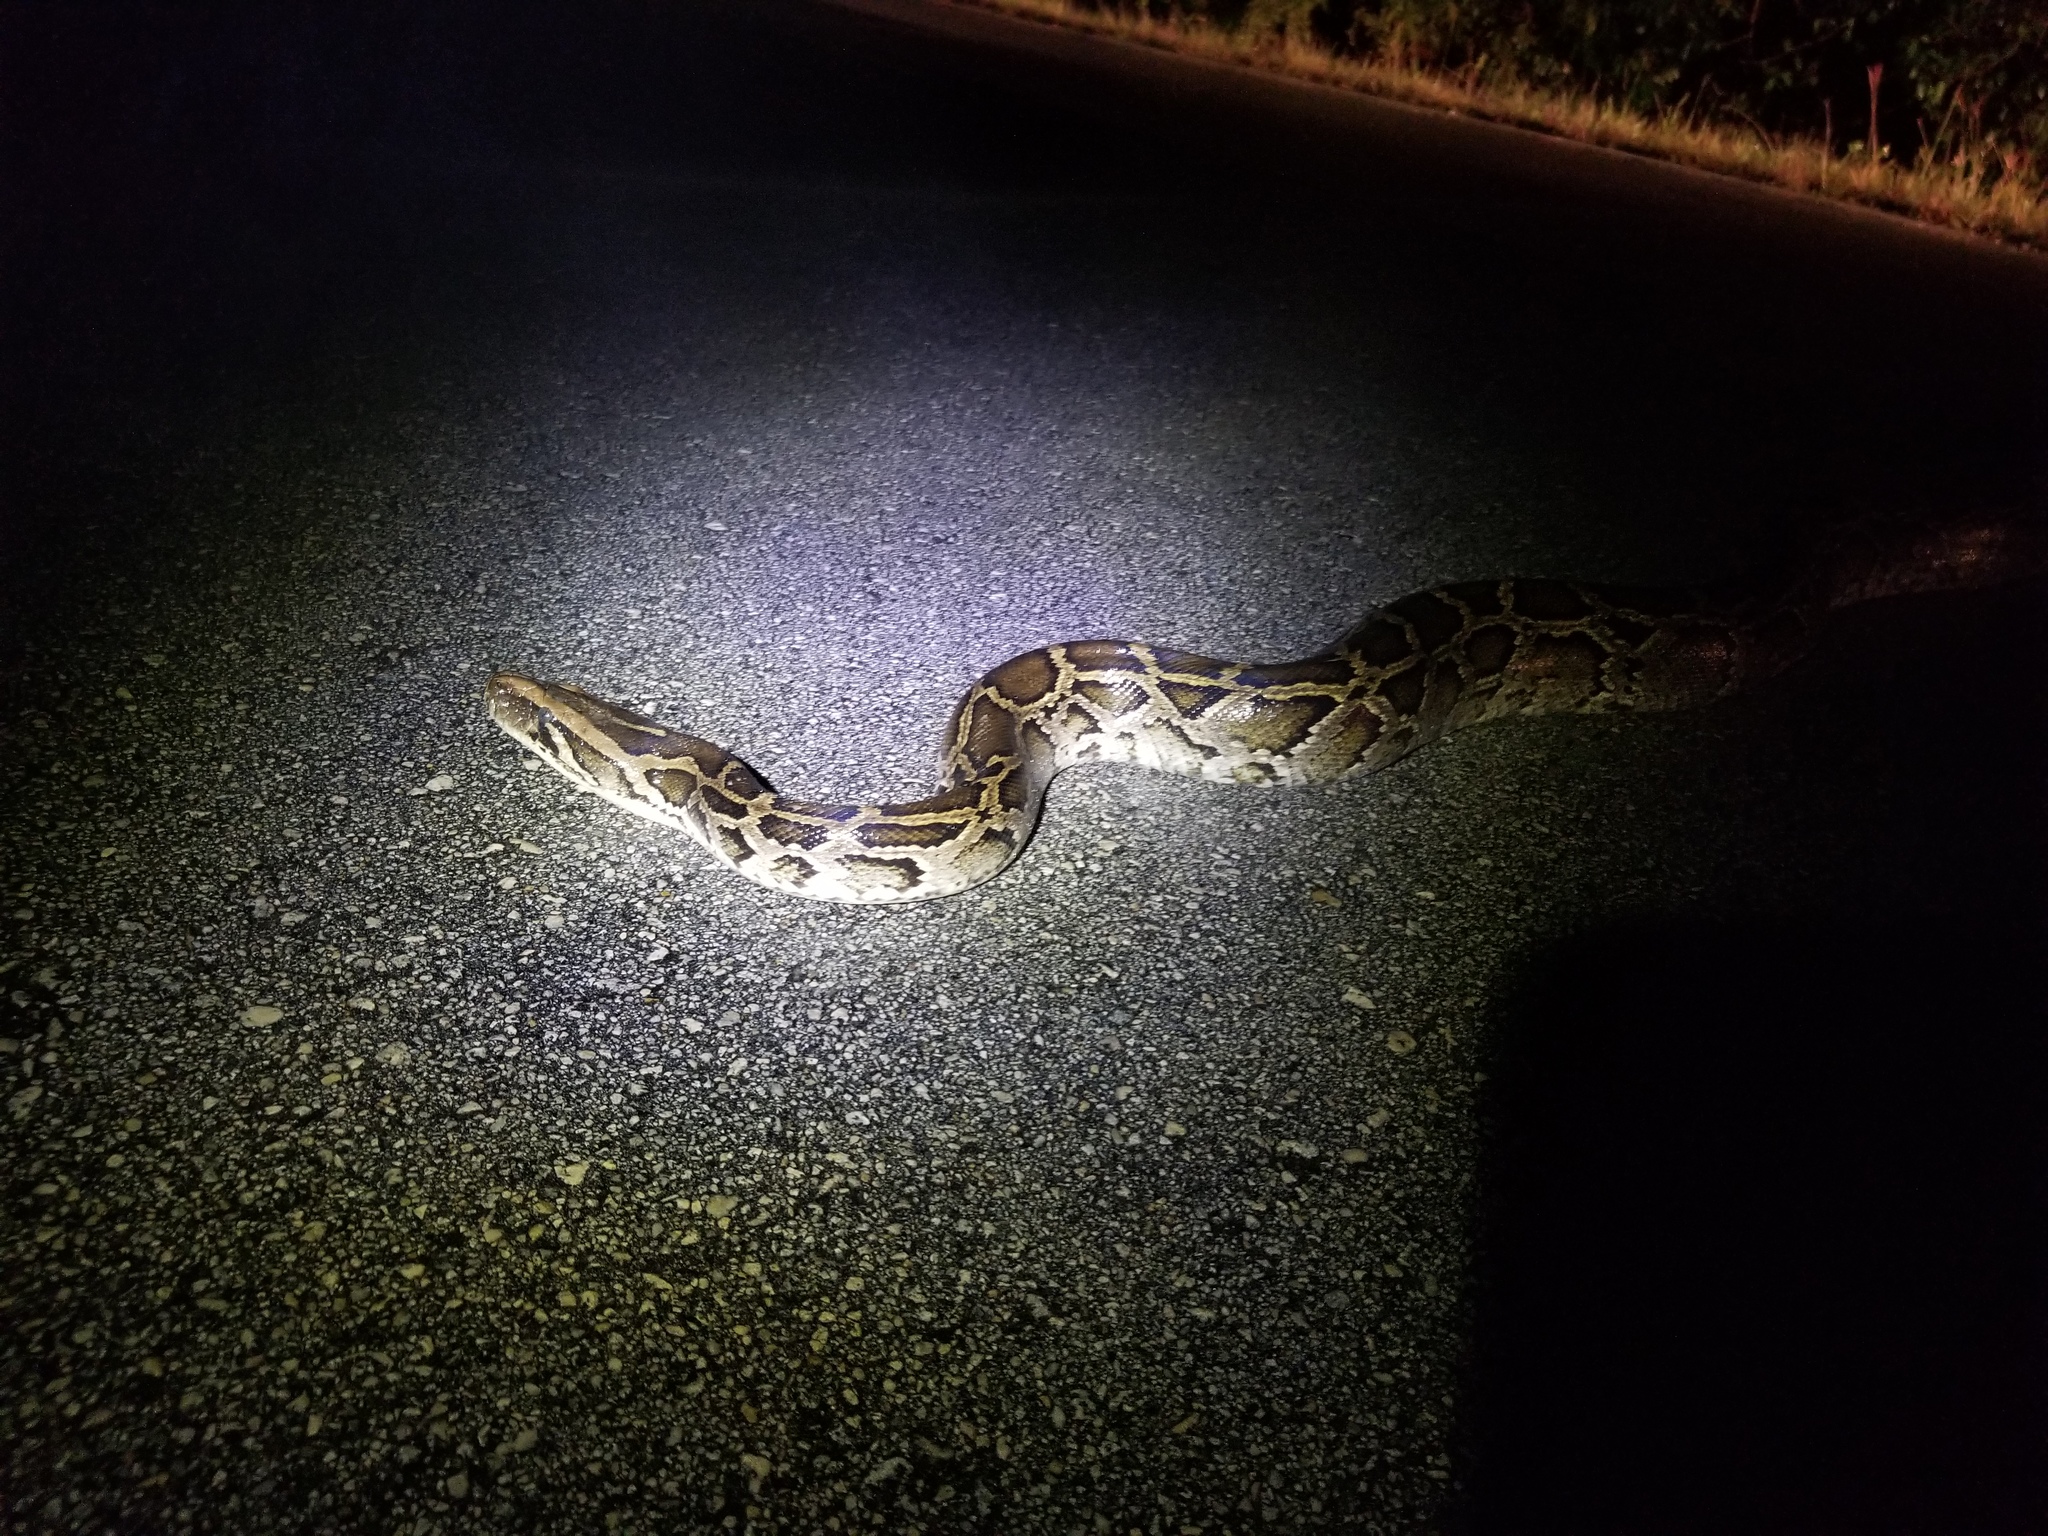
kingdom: Animalia
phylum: Chordata
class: Squamata
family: Pythonidae
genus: Python
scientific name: Python bivittatus
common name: Burmese python
